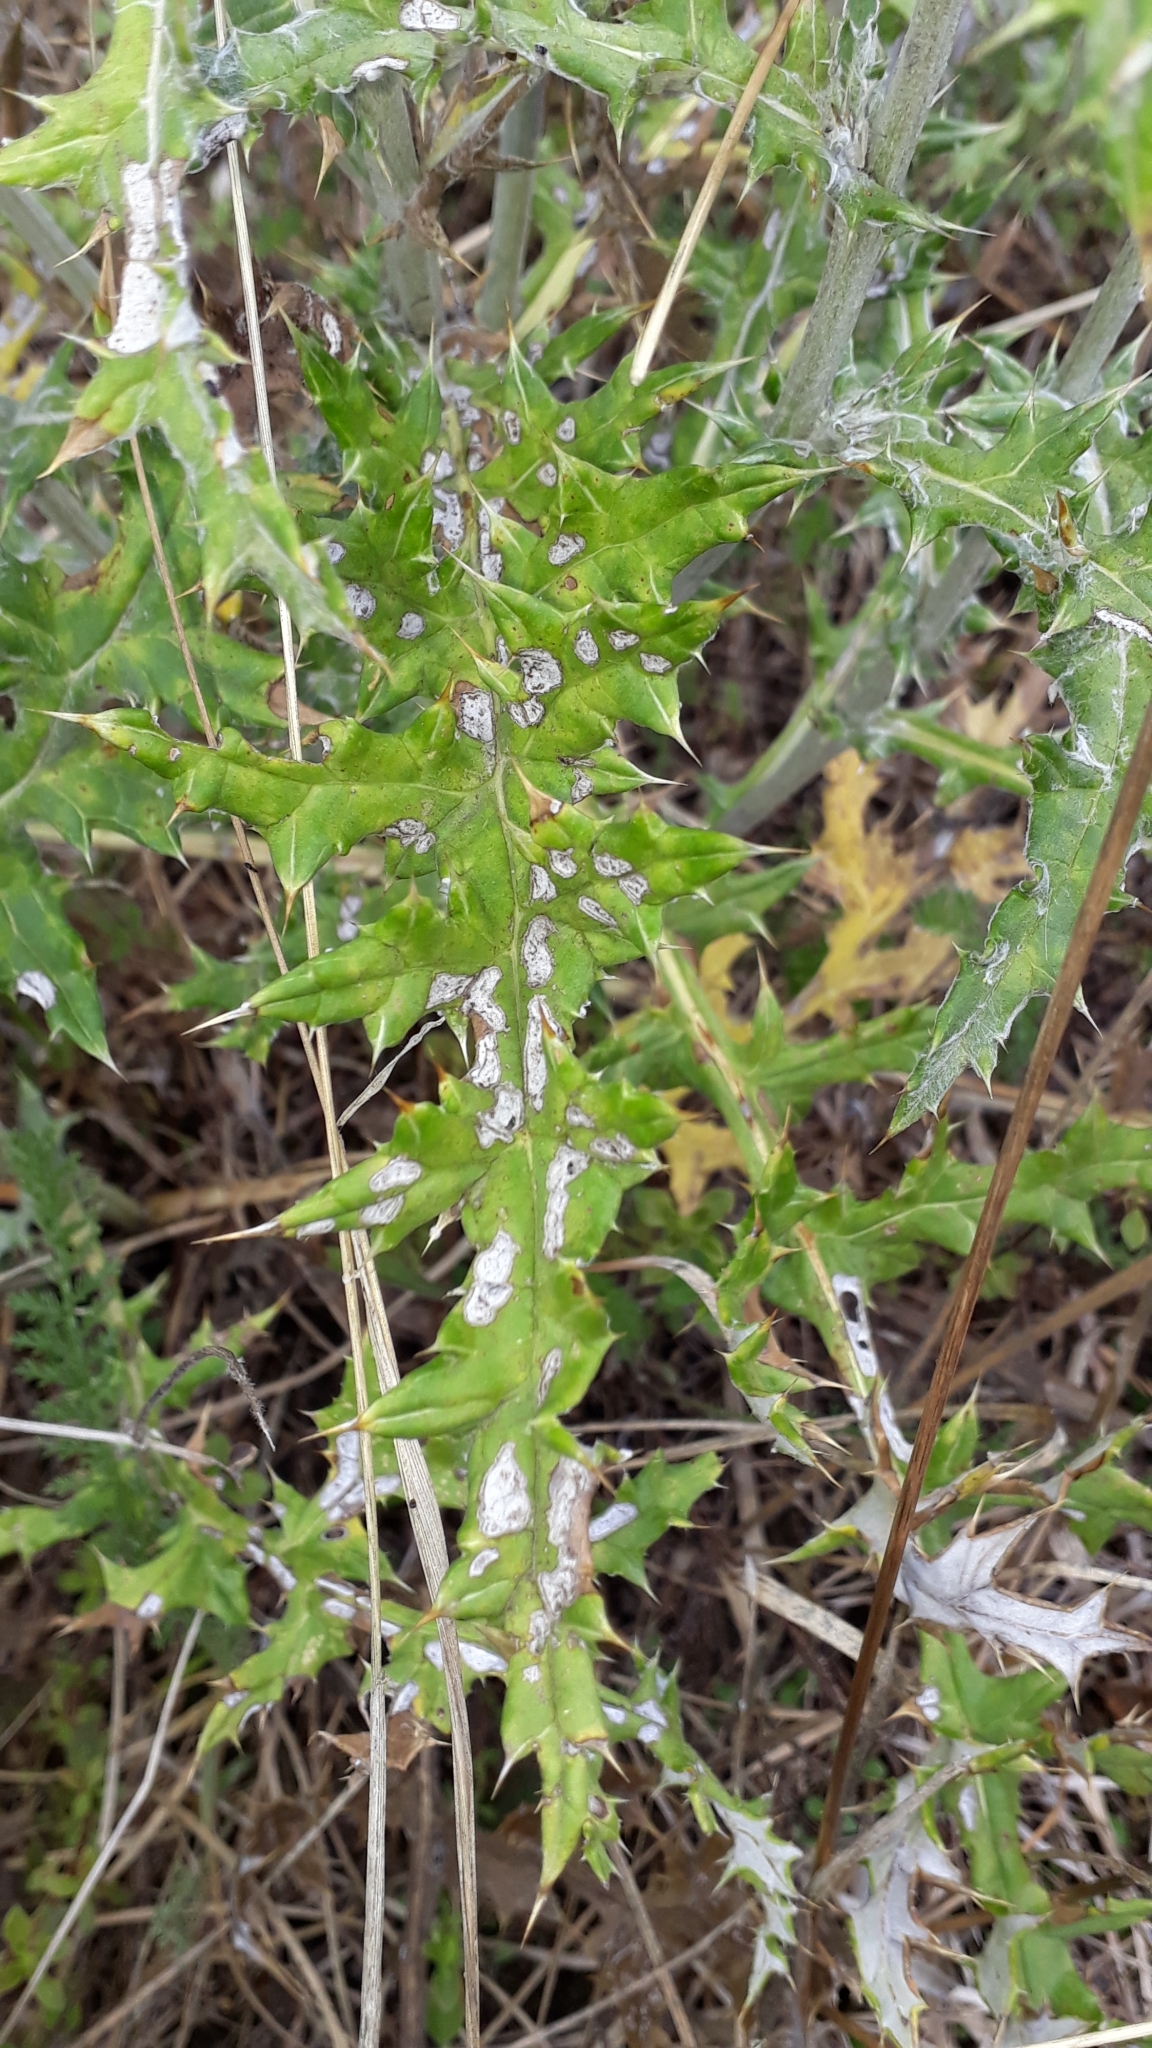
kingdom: Plantae
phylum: Tracheophyta
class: Magnoliopsida
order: Asterales
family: Asteraceae
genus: Echinops
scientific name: Echinops ritro
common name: Globe thistle
